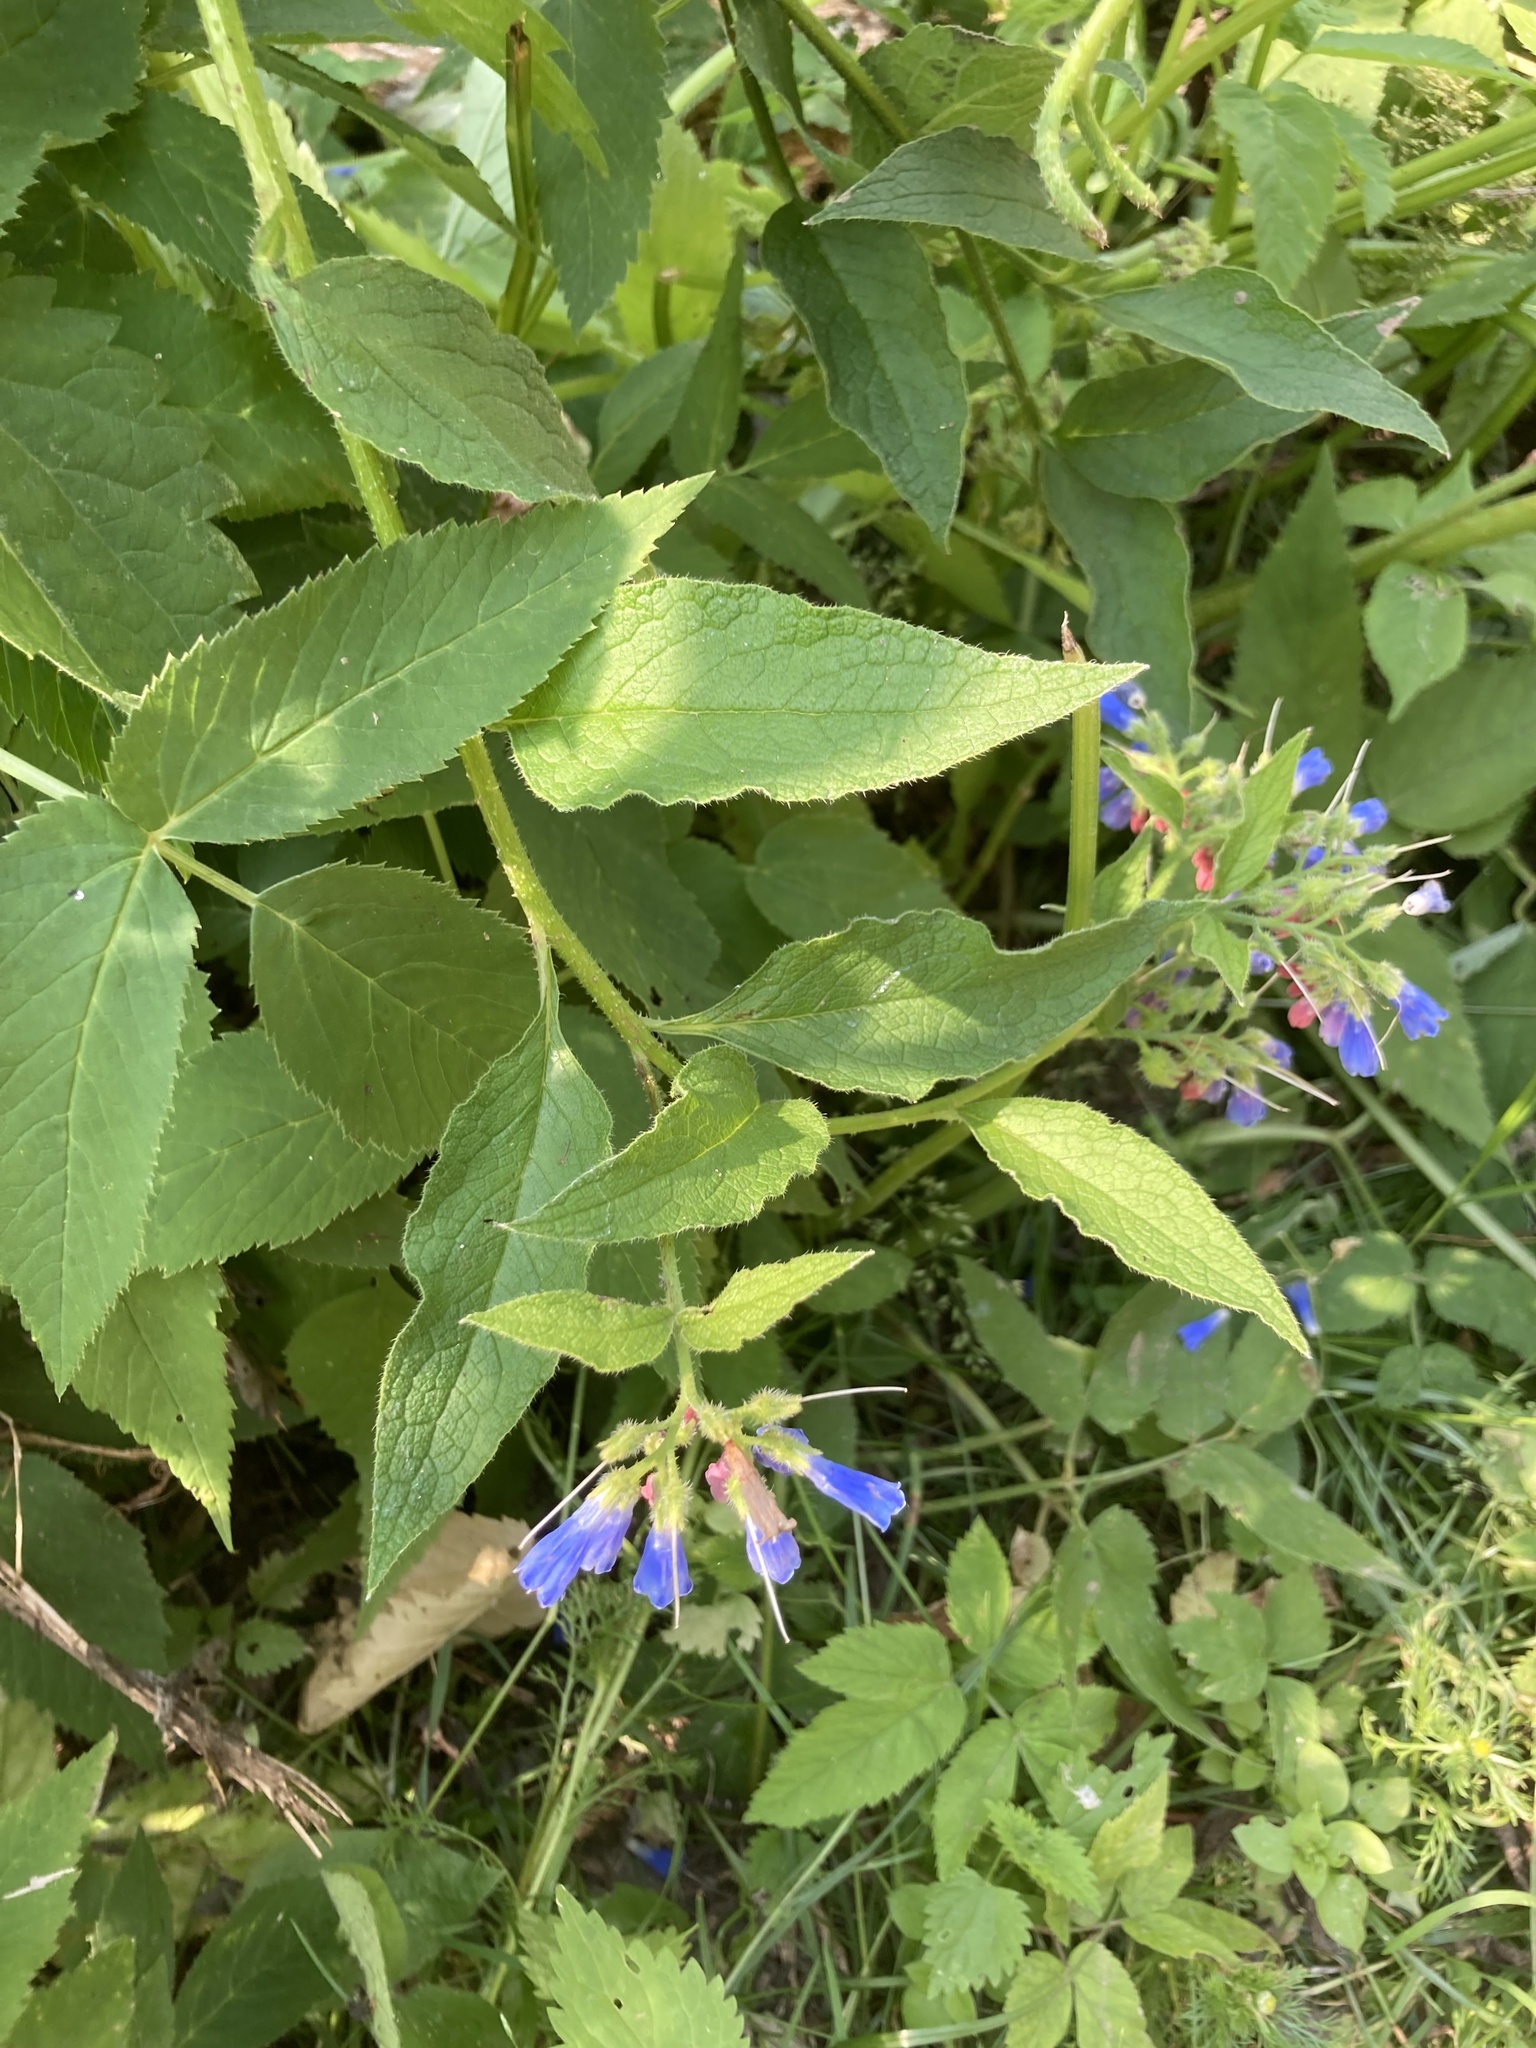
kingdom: Plantae
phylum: Tracheophyta
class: Magnoliopsida
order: Boraginales
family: Boraginaceae
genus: Symphytum
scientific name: Symphytum asperum
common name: Prickly comfrey
